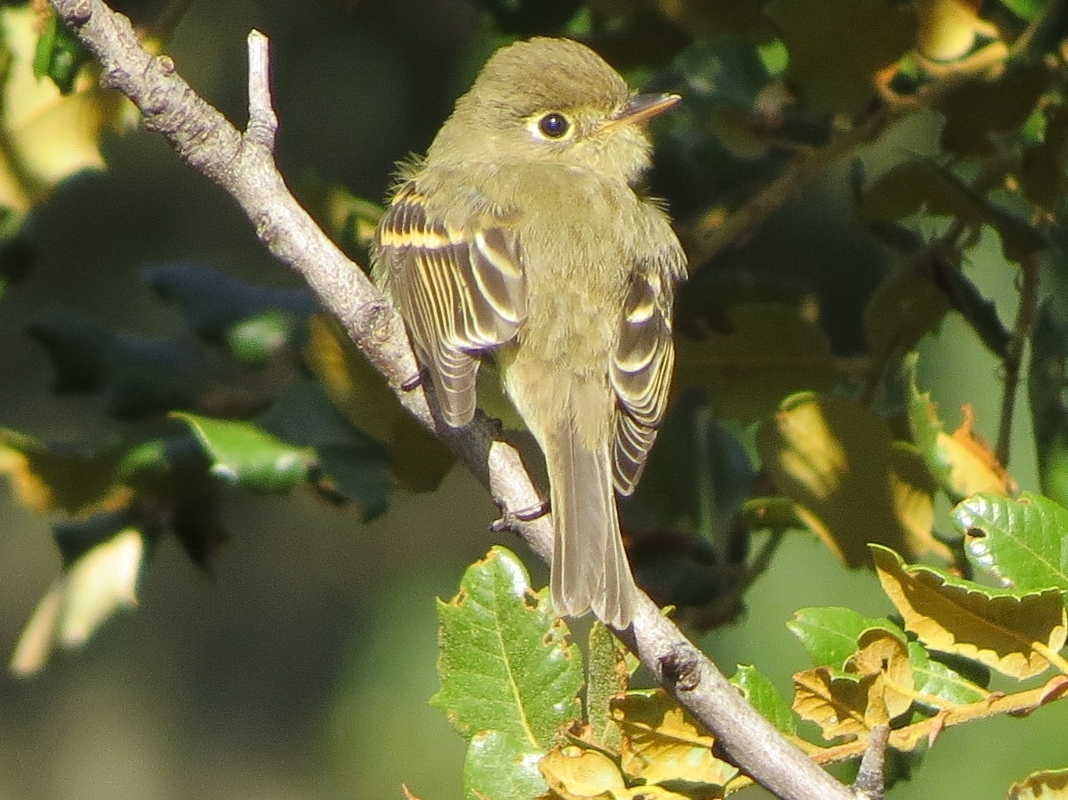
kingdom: Animalia
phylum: Chordata
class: Aves
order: Passeriformes
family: Tyrannidae
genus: Empidonax
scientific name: Empidonax difficilis
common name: Pacific-slope flycatcher
